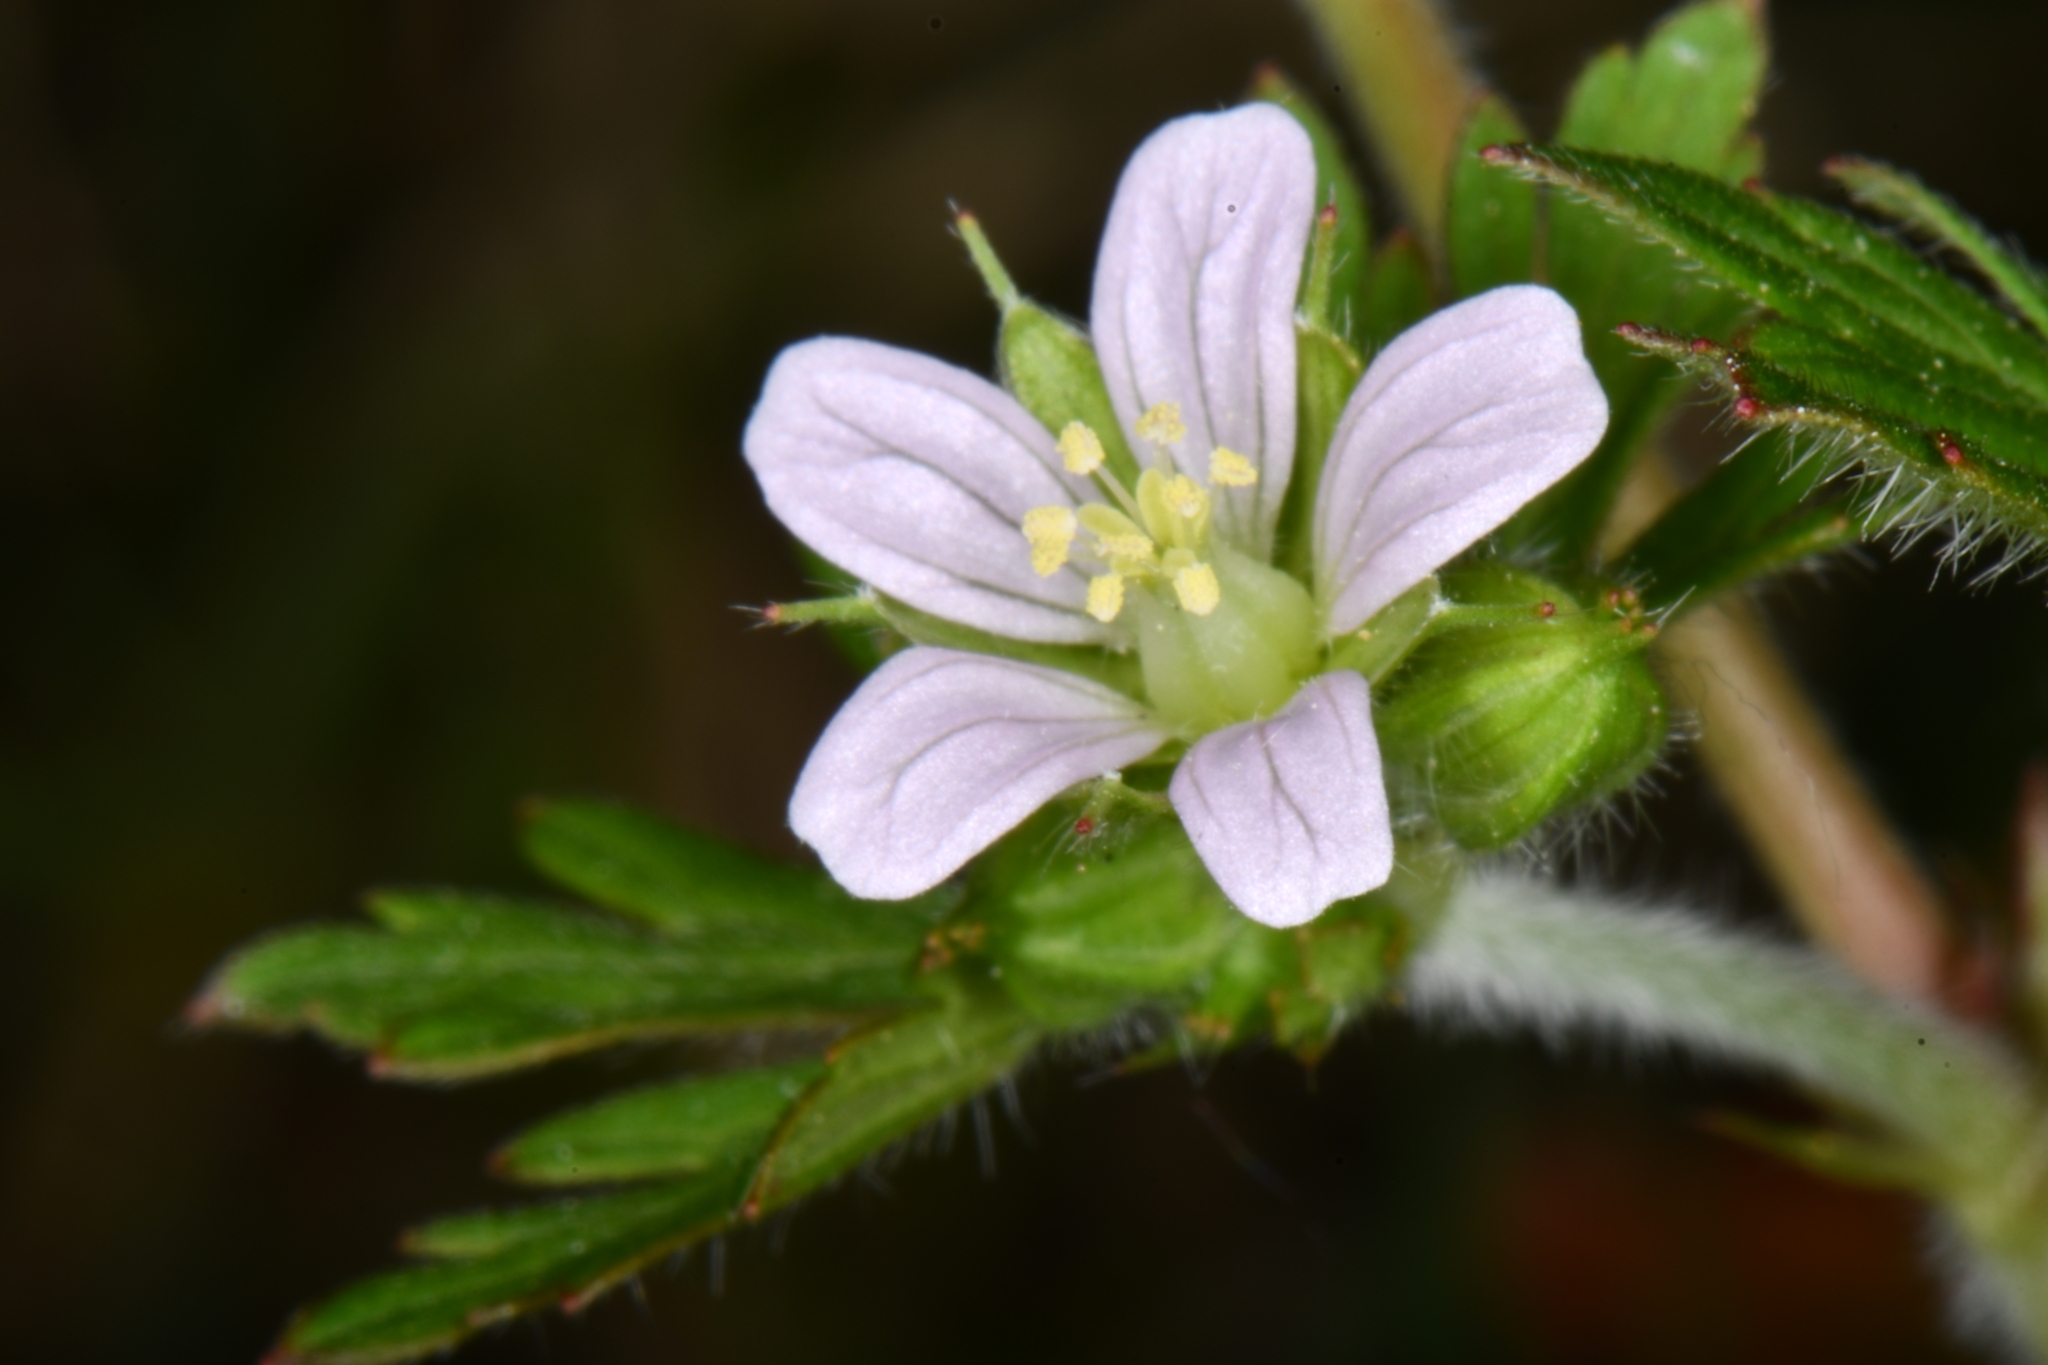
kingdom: Plantae
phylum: Tracheophyta
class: Magnoliopsida
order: Geraniales
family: Geraniaceae
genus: Geranium
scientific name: Geranium carolinianum
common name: Carolina crane's-bill
